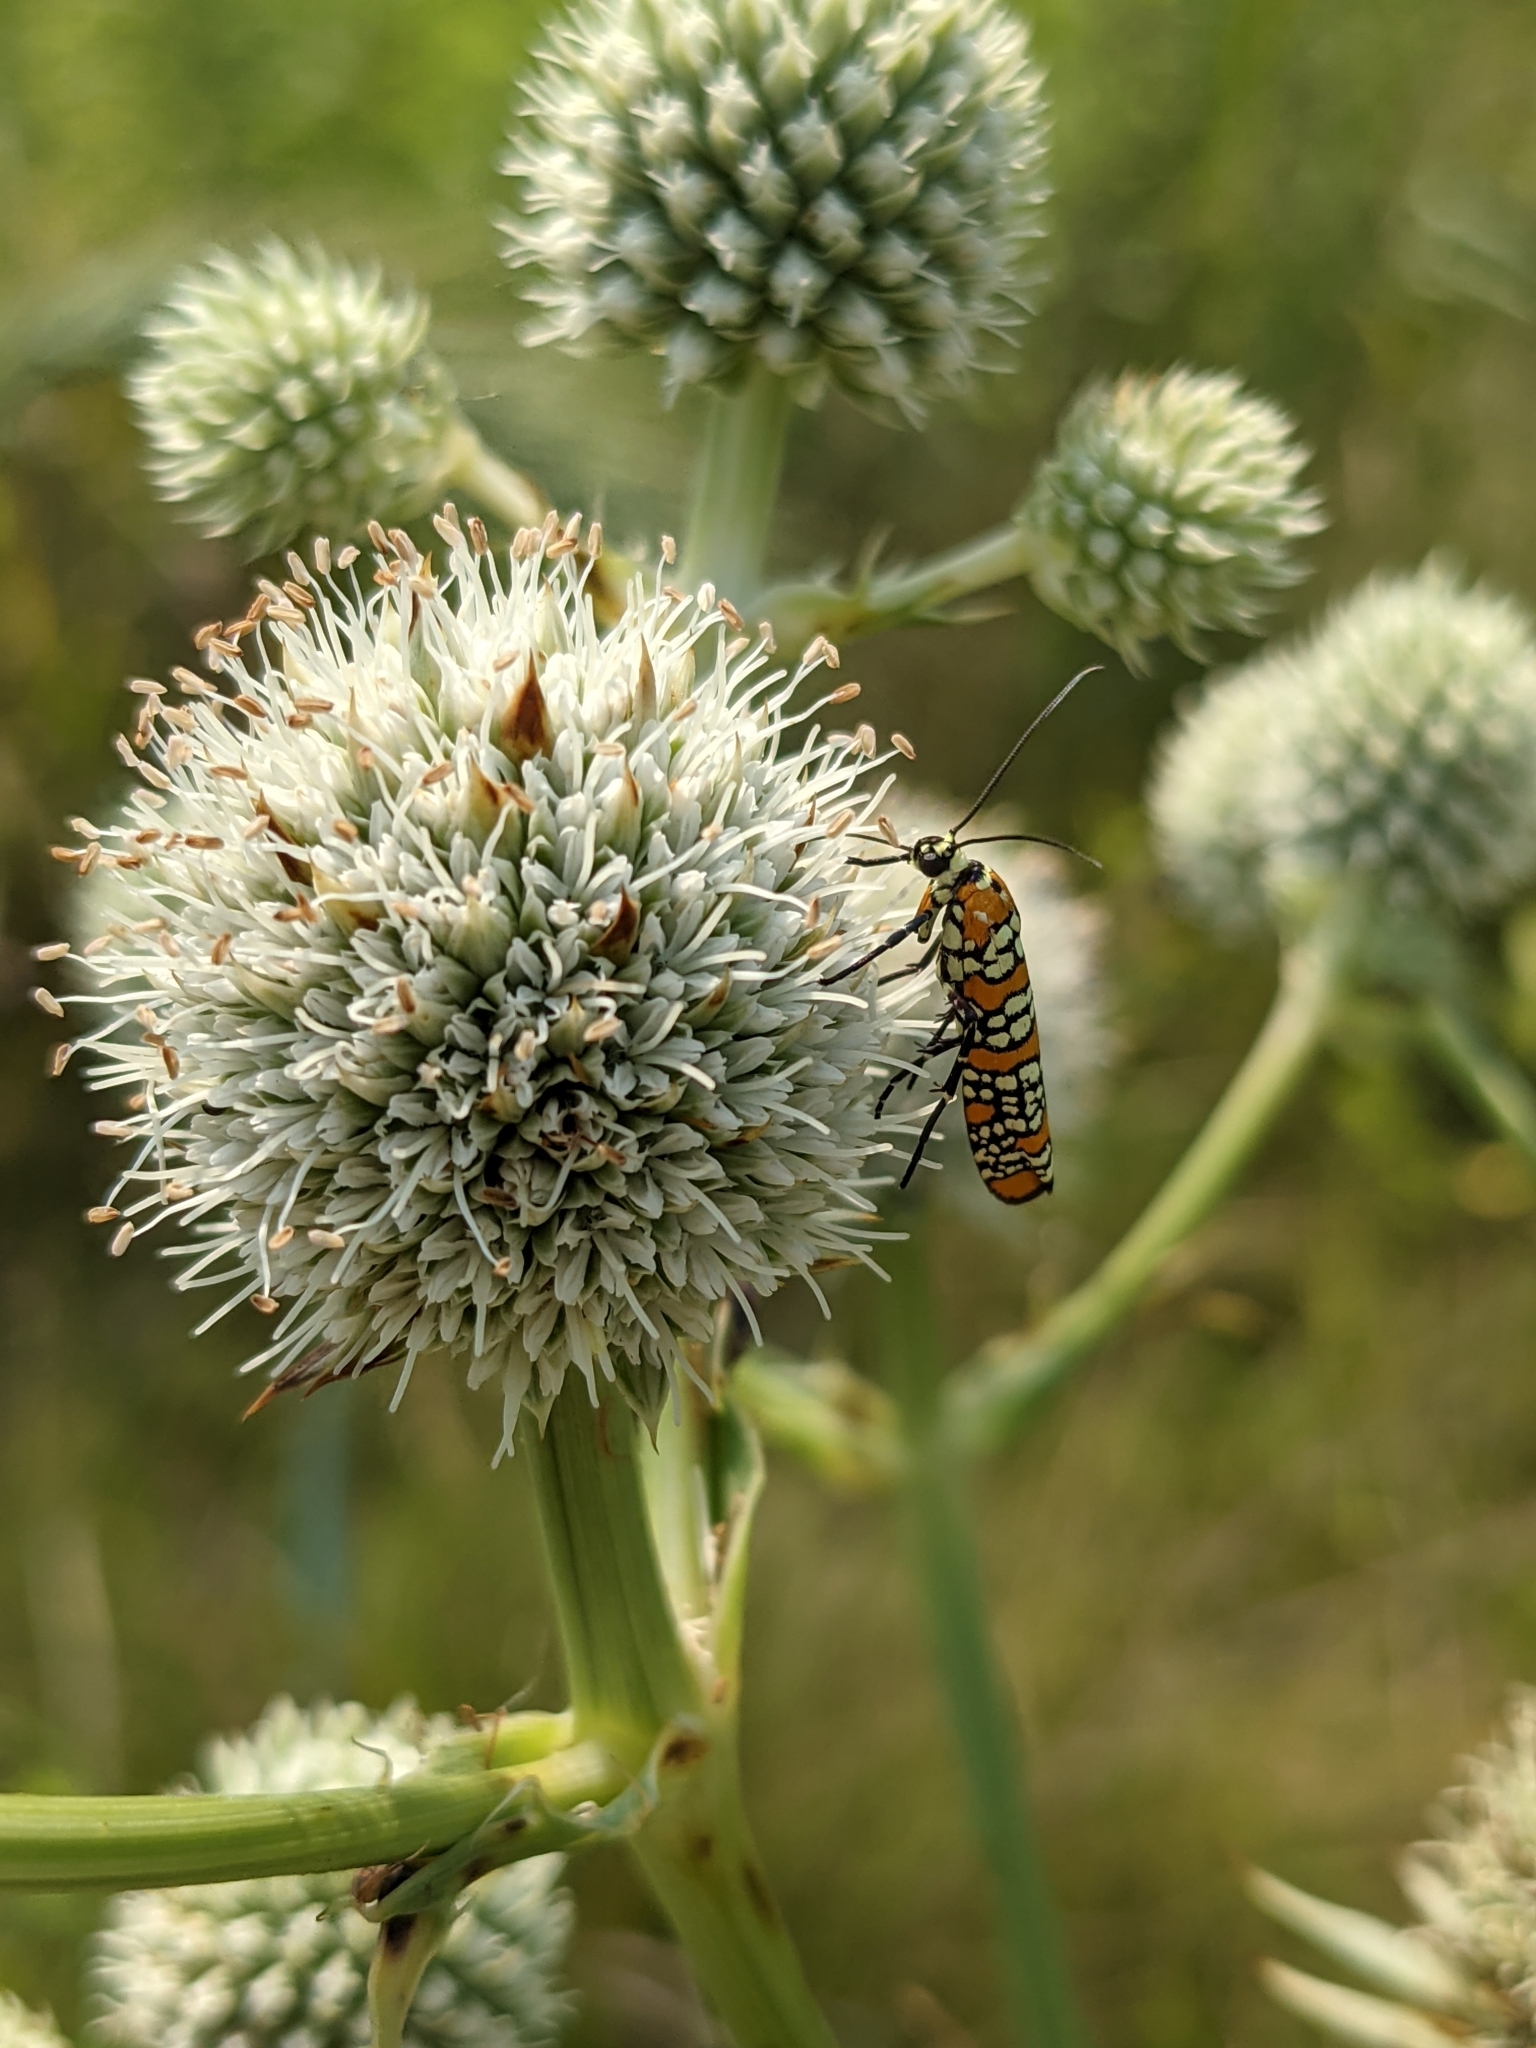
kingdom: Animalia
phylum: Arthropoda
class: Insecta
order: Lepidoptera
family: Attevidae
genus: Atteva
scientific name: Atteva punctella
